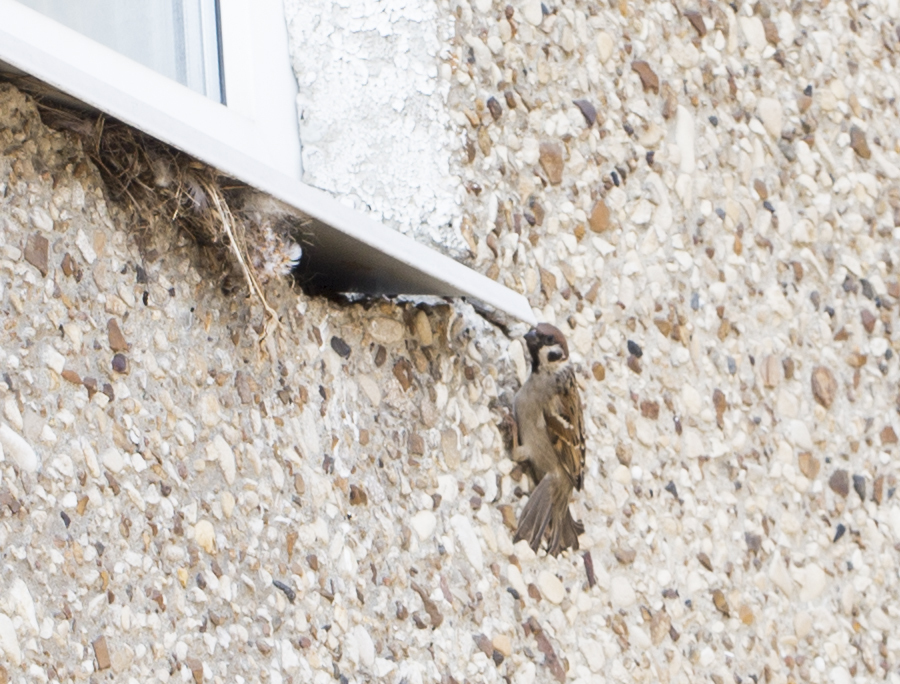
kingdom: Animalia
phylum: Chordata
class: Aves
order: Passeriformes
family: Passeridae
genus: Passer
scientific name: Passer montanus
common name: Eurasian tree sparrow
